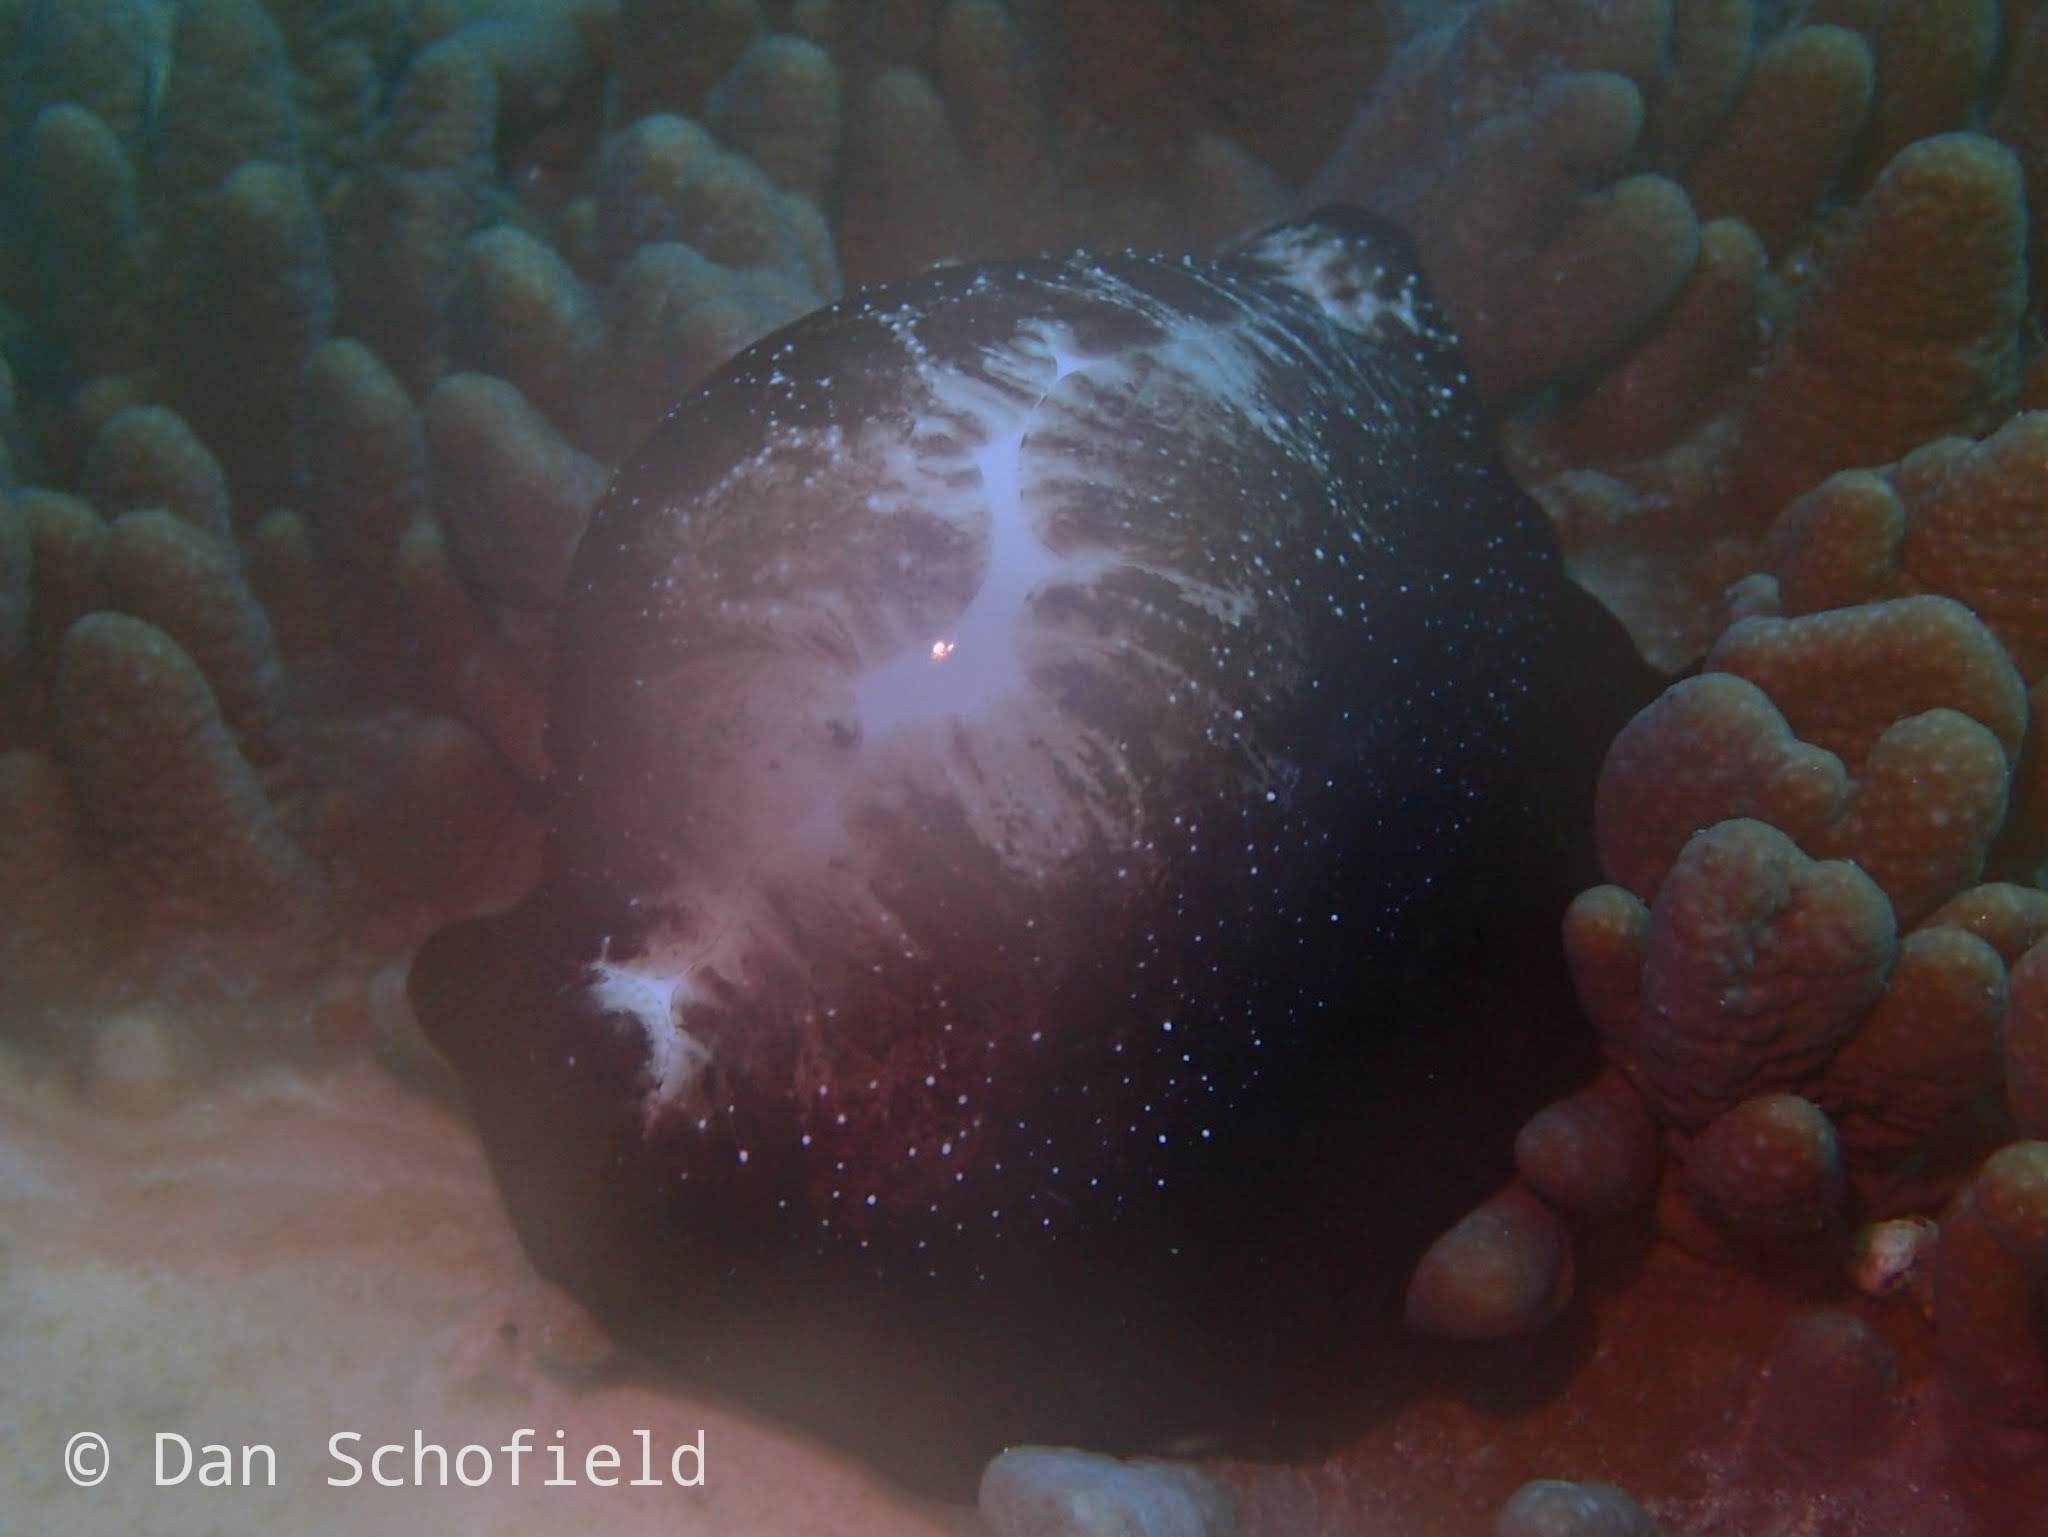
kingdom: Animalia
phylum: Mollusca
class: Gastropoda
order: Littorinimorpha
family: Ovulidae
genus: Ovula
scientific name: Ovula ovum
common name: Common egg cowrie
